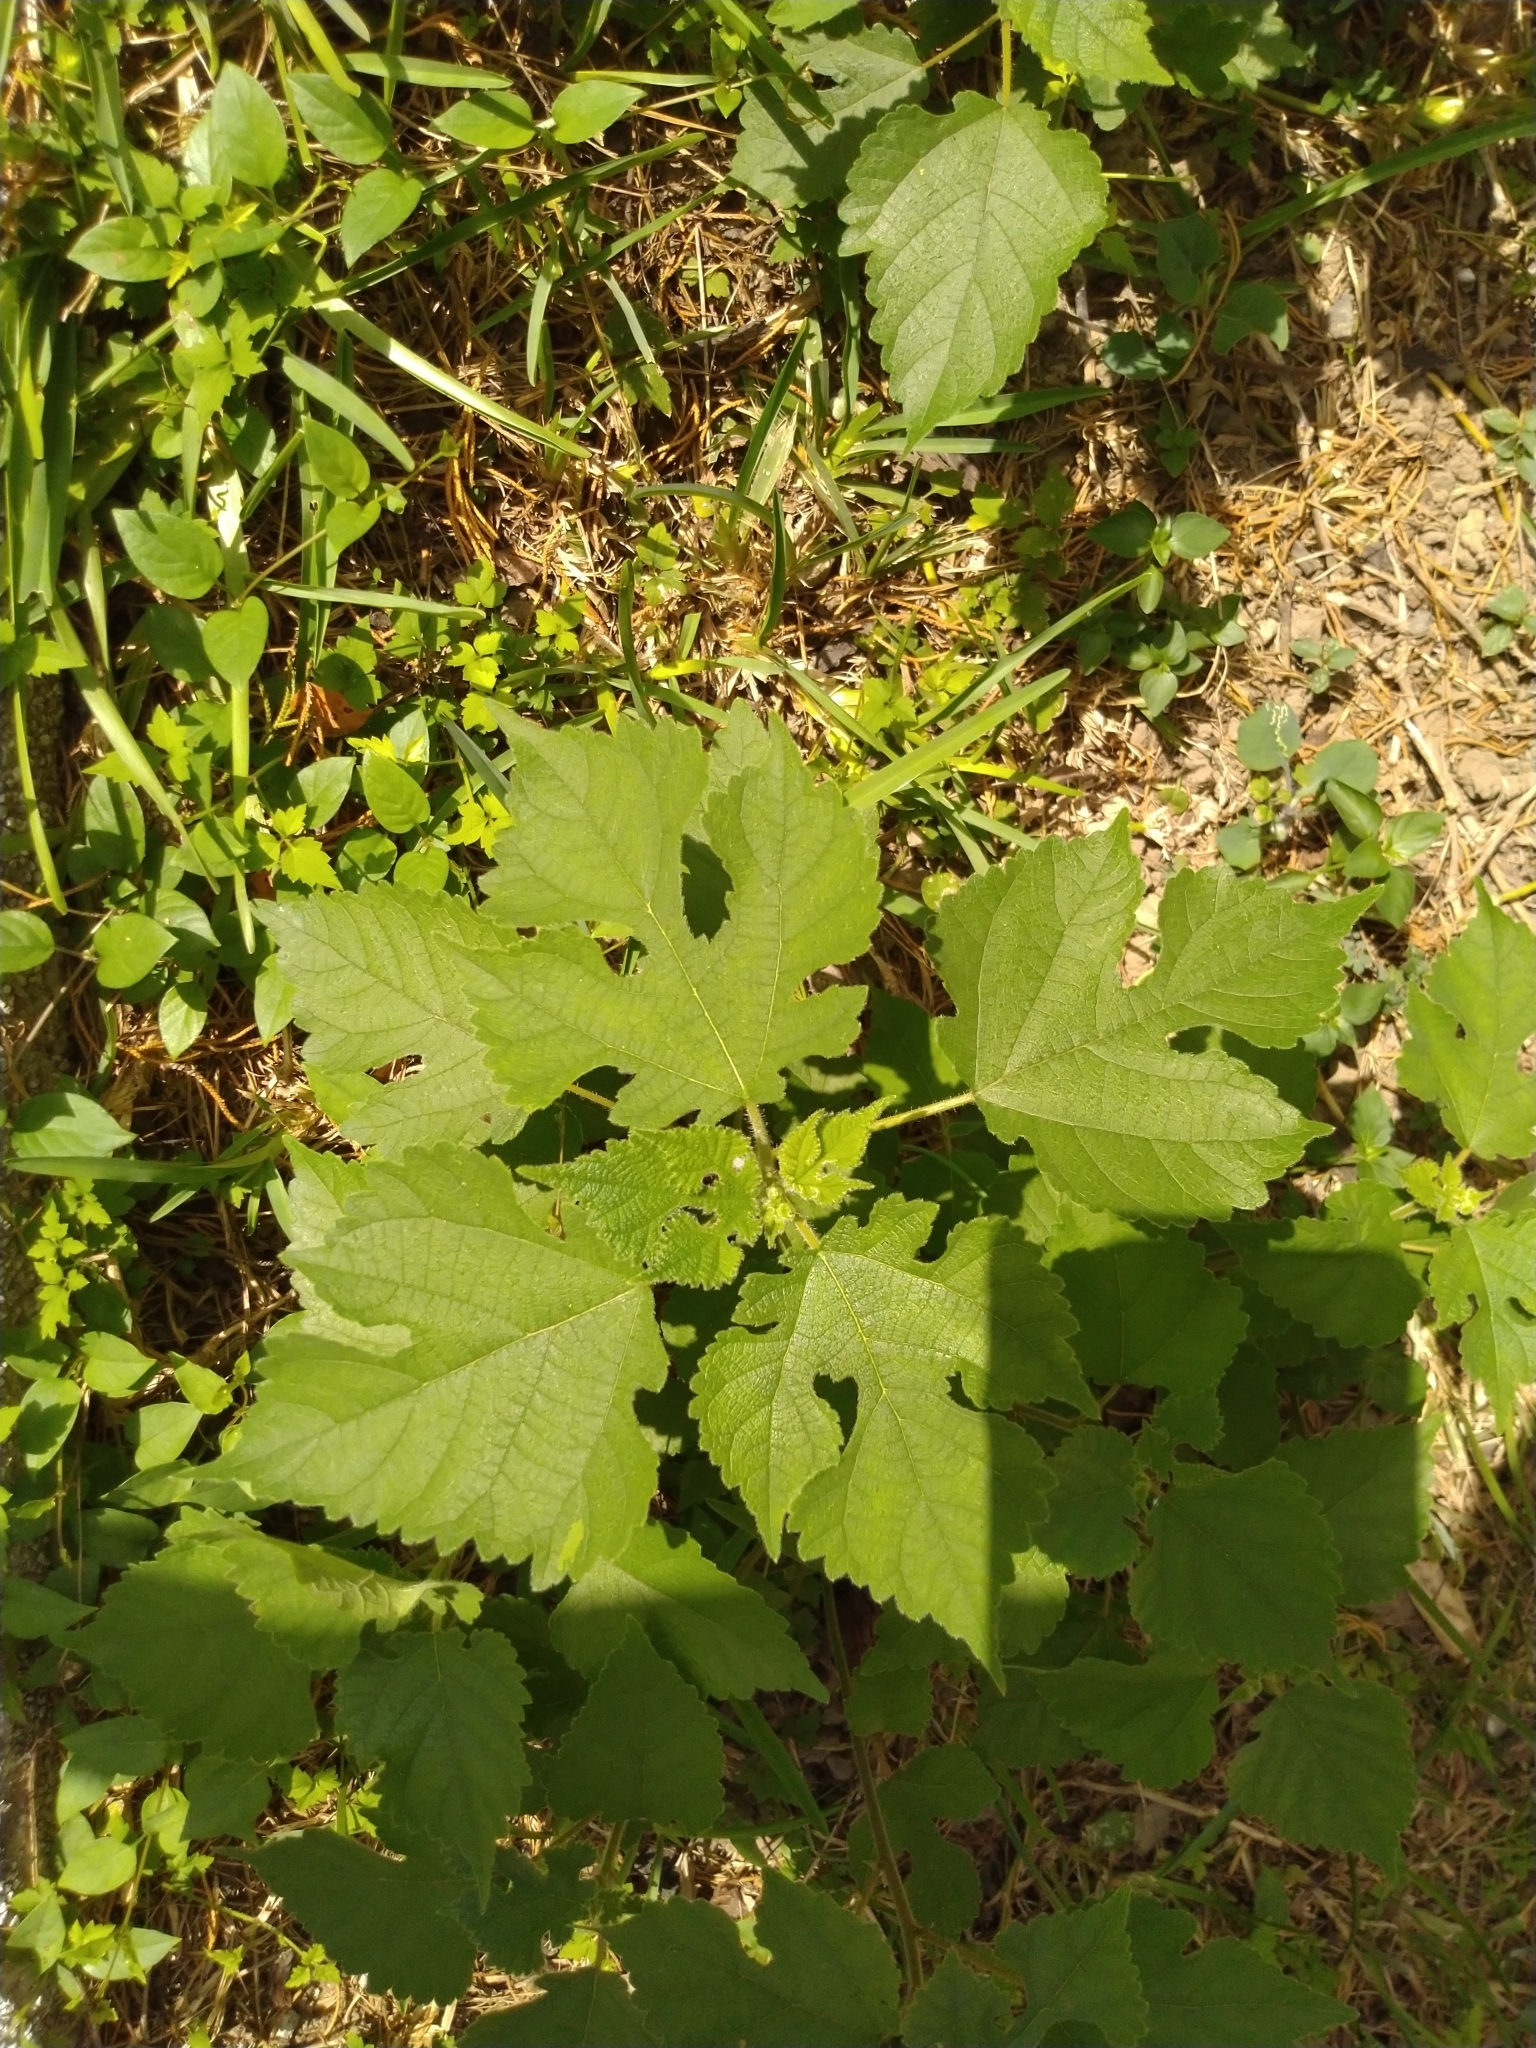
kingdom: Plantae
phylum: Tracheophyta
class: Magnoliopsida
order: Rosales
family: Moraceae
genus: Broussonetia
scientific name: Broussonetia papyrifera
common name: Paper mulberry
